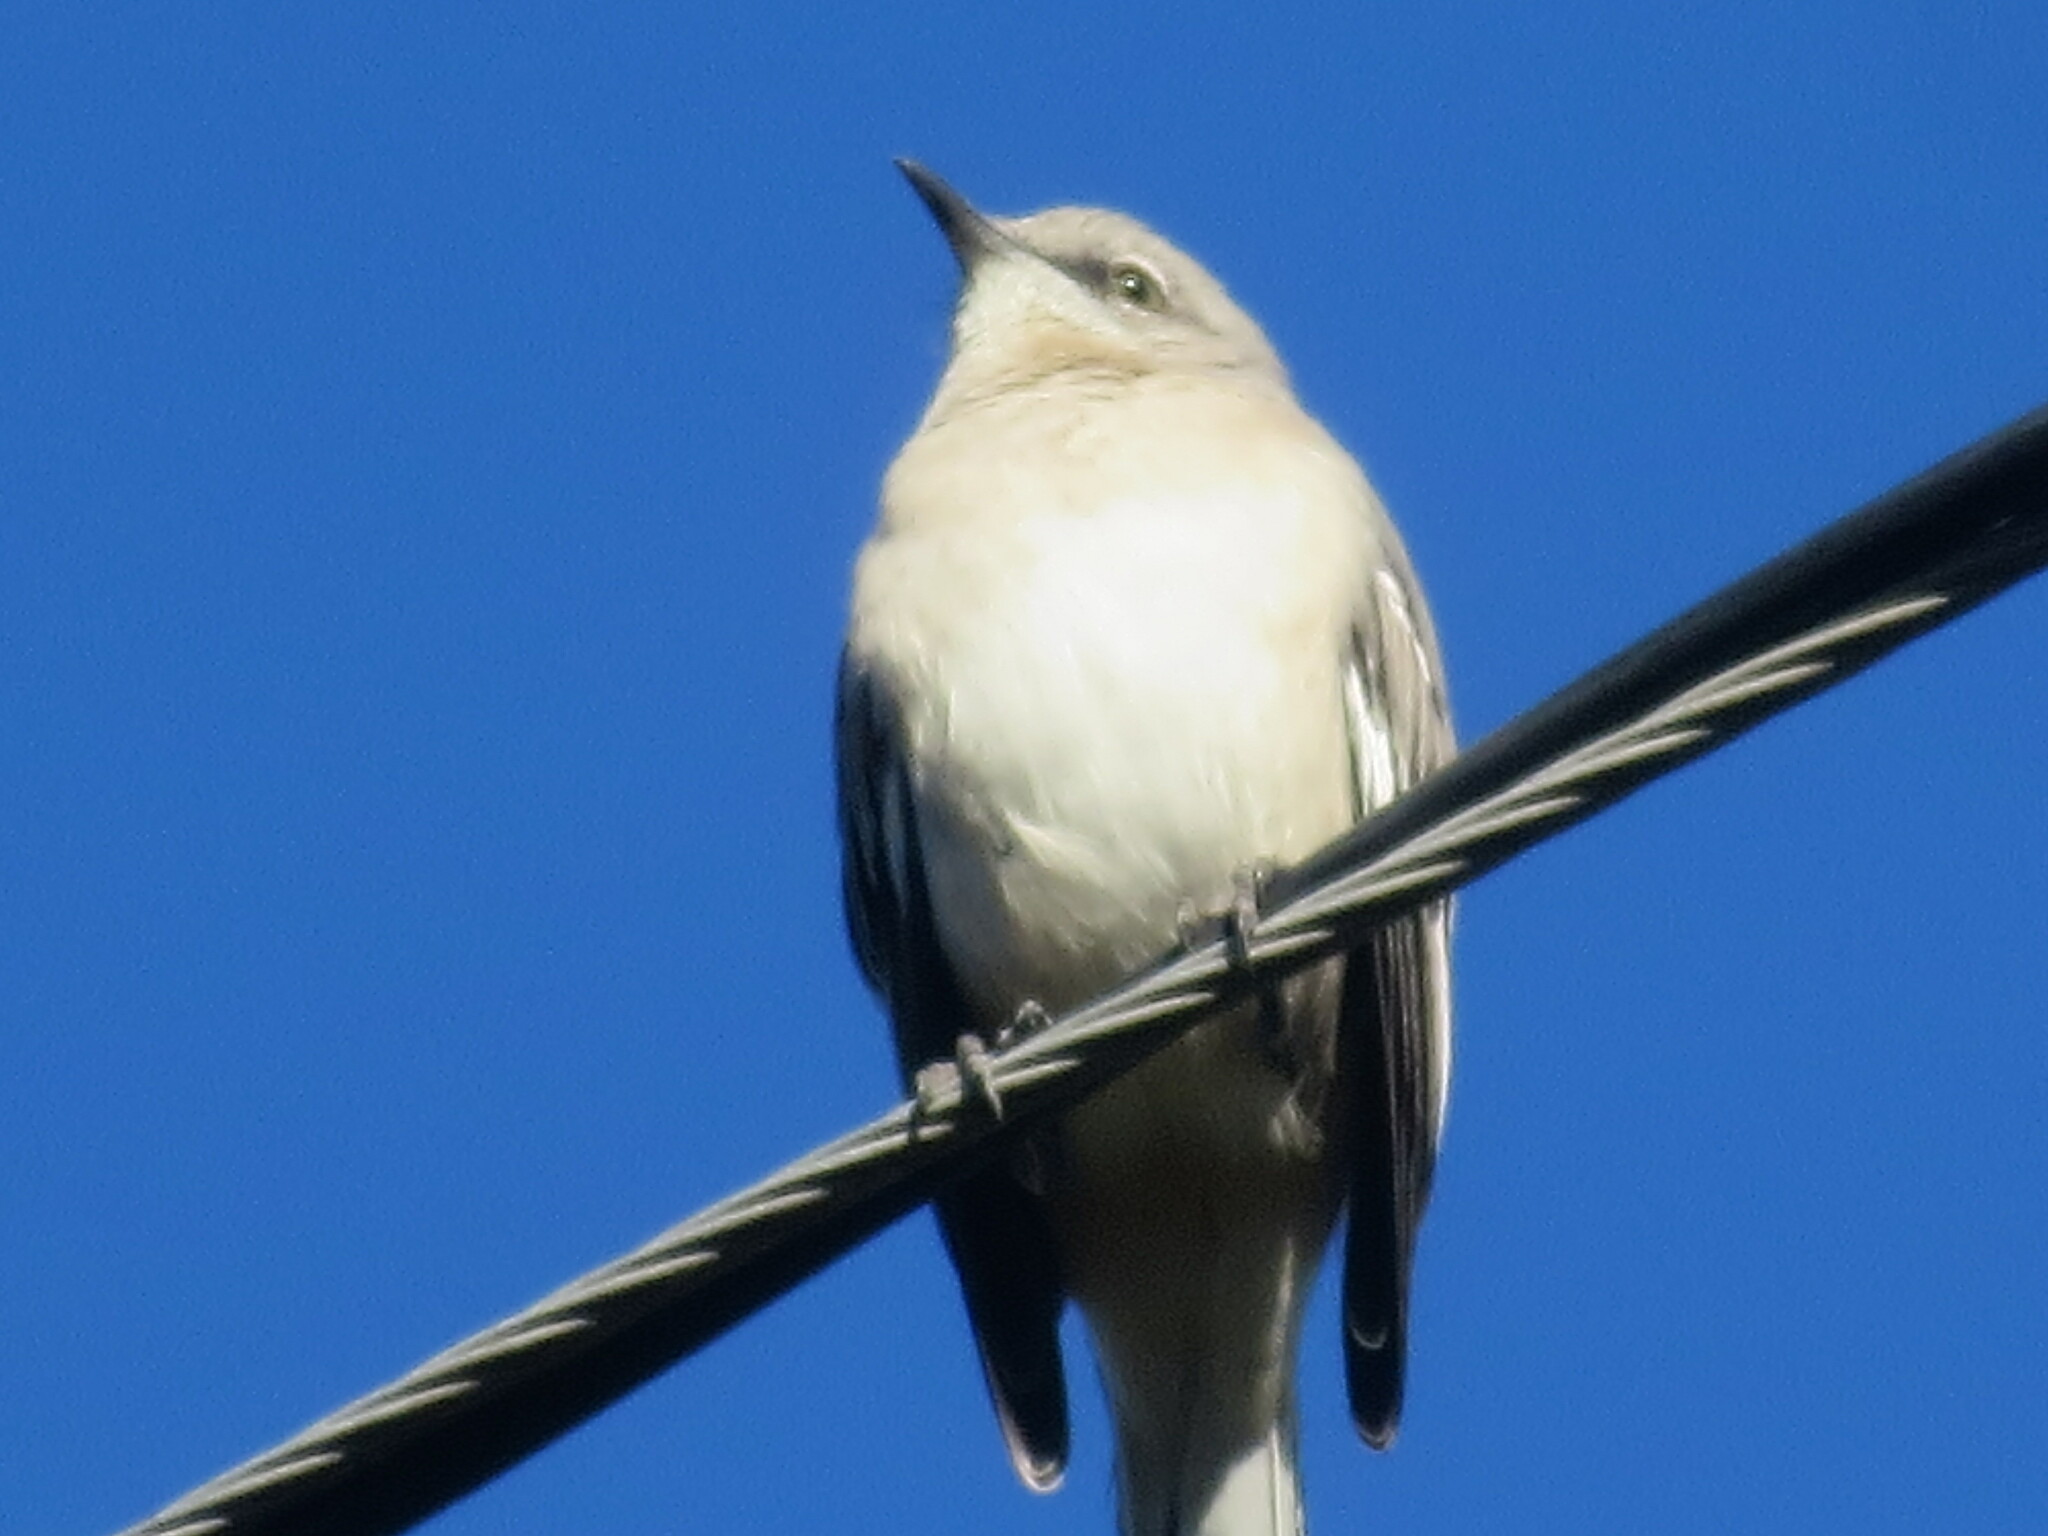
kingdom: Animalia
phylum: Chordata
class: Aves
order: Passeriformes
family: Mimidae
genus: Mimus
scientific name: Mimus polyglottos
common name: Northern mockingbird
